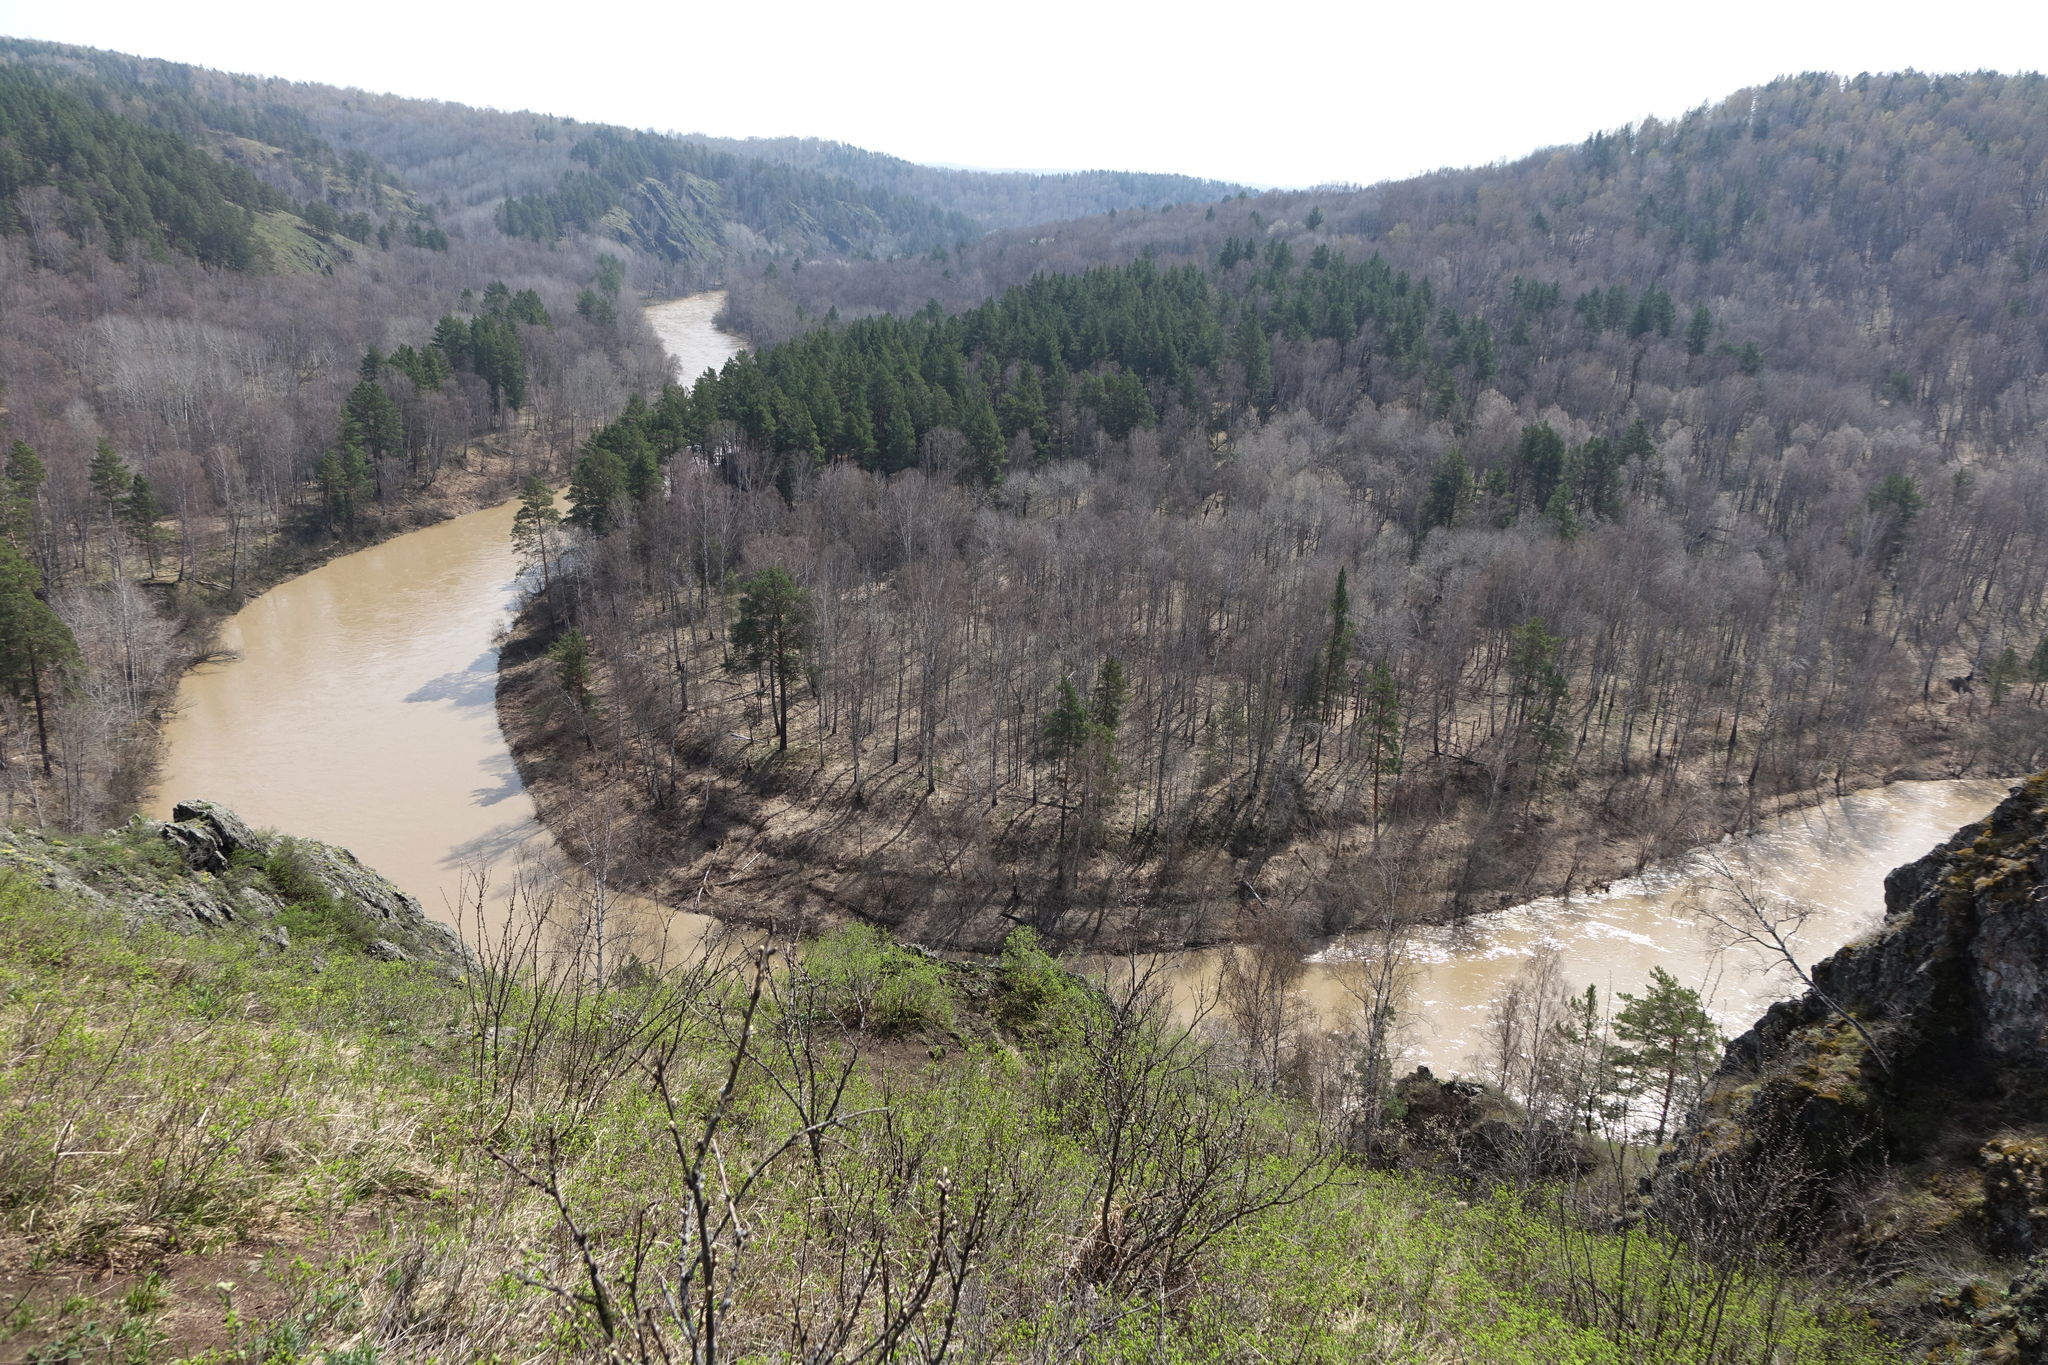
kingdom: Plantae
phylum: Tracheophyta
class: Pinopsida
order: Pinales
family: Pinaceae
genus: Pinus
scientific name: Pinus sylvestris
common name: Scots pine
